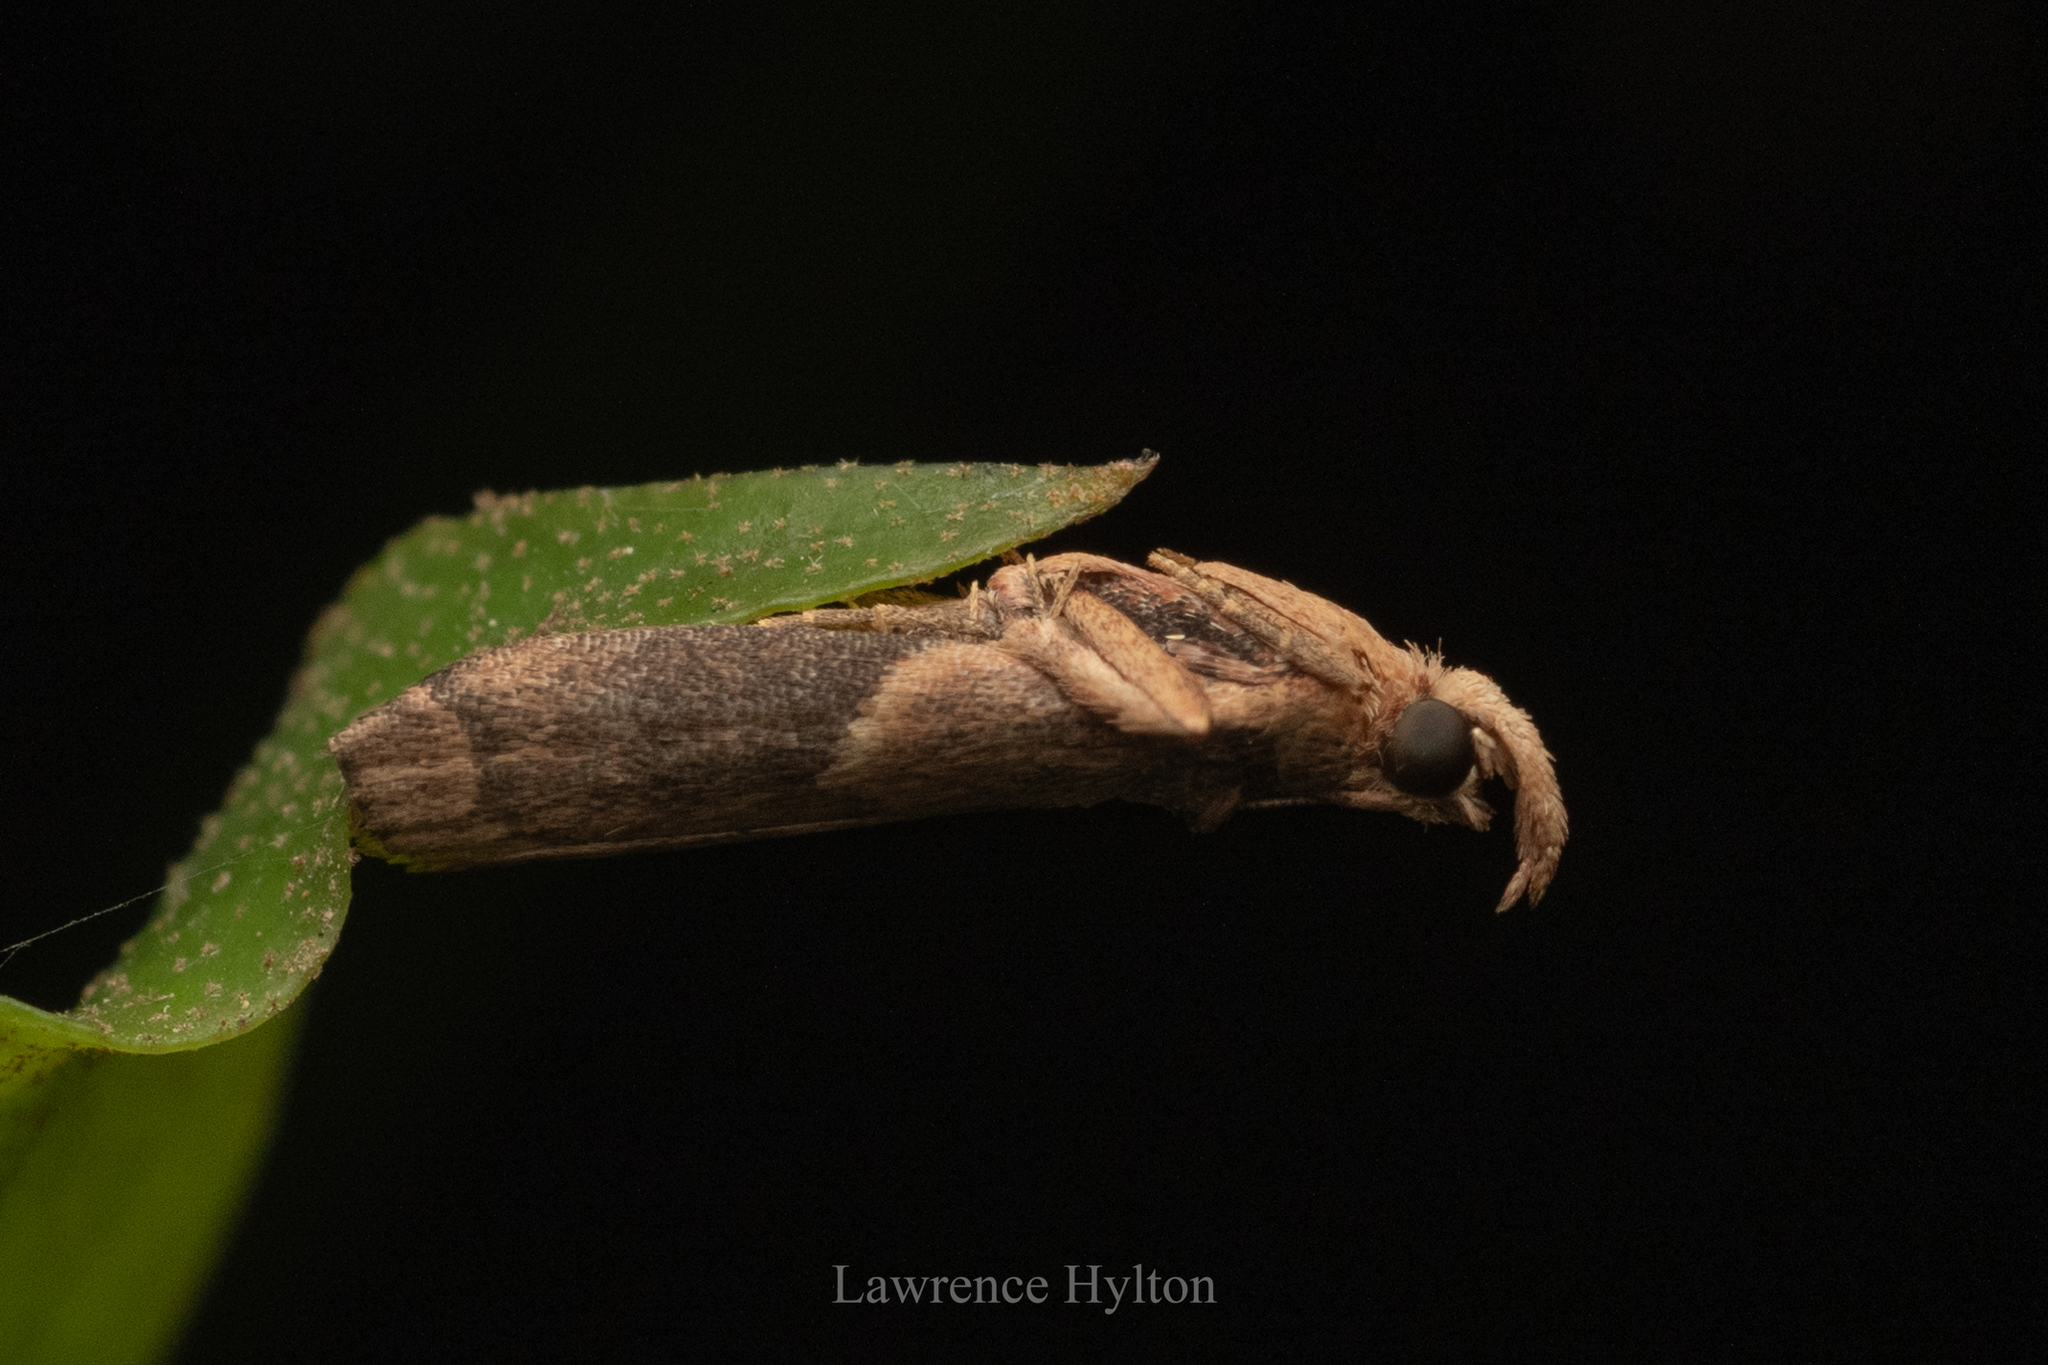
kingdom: Animalia
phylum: Arthropoda
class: Insecta
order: Lepidoptera
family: Pyralidae
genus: Volobilis
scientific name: Volobilis biplaga
